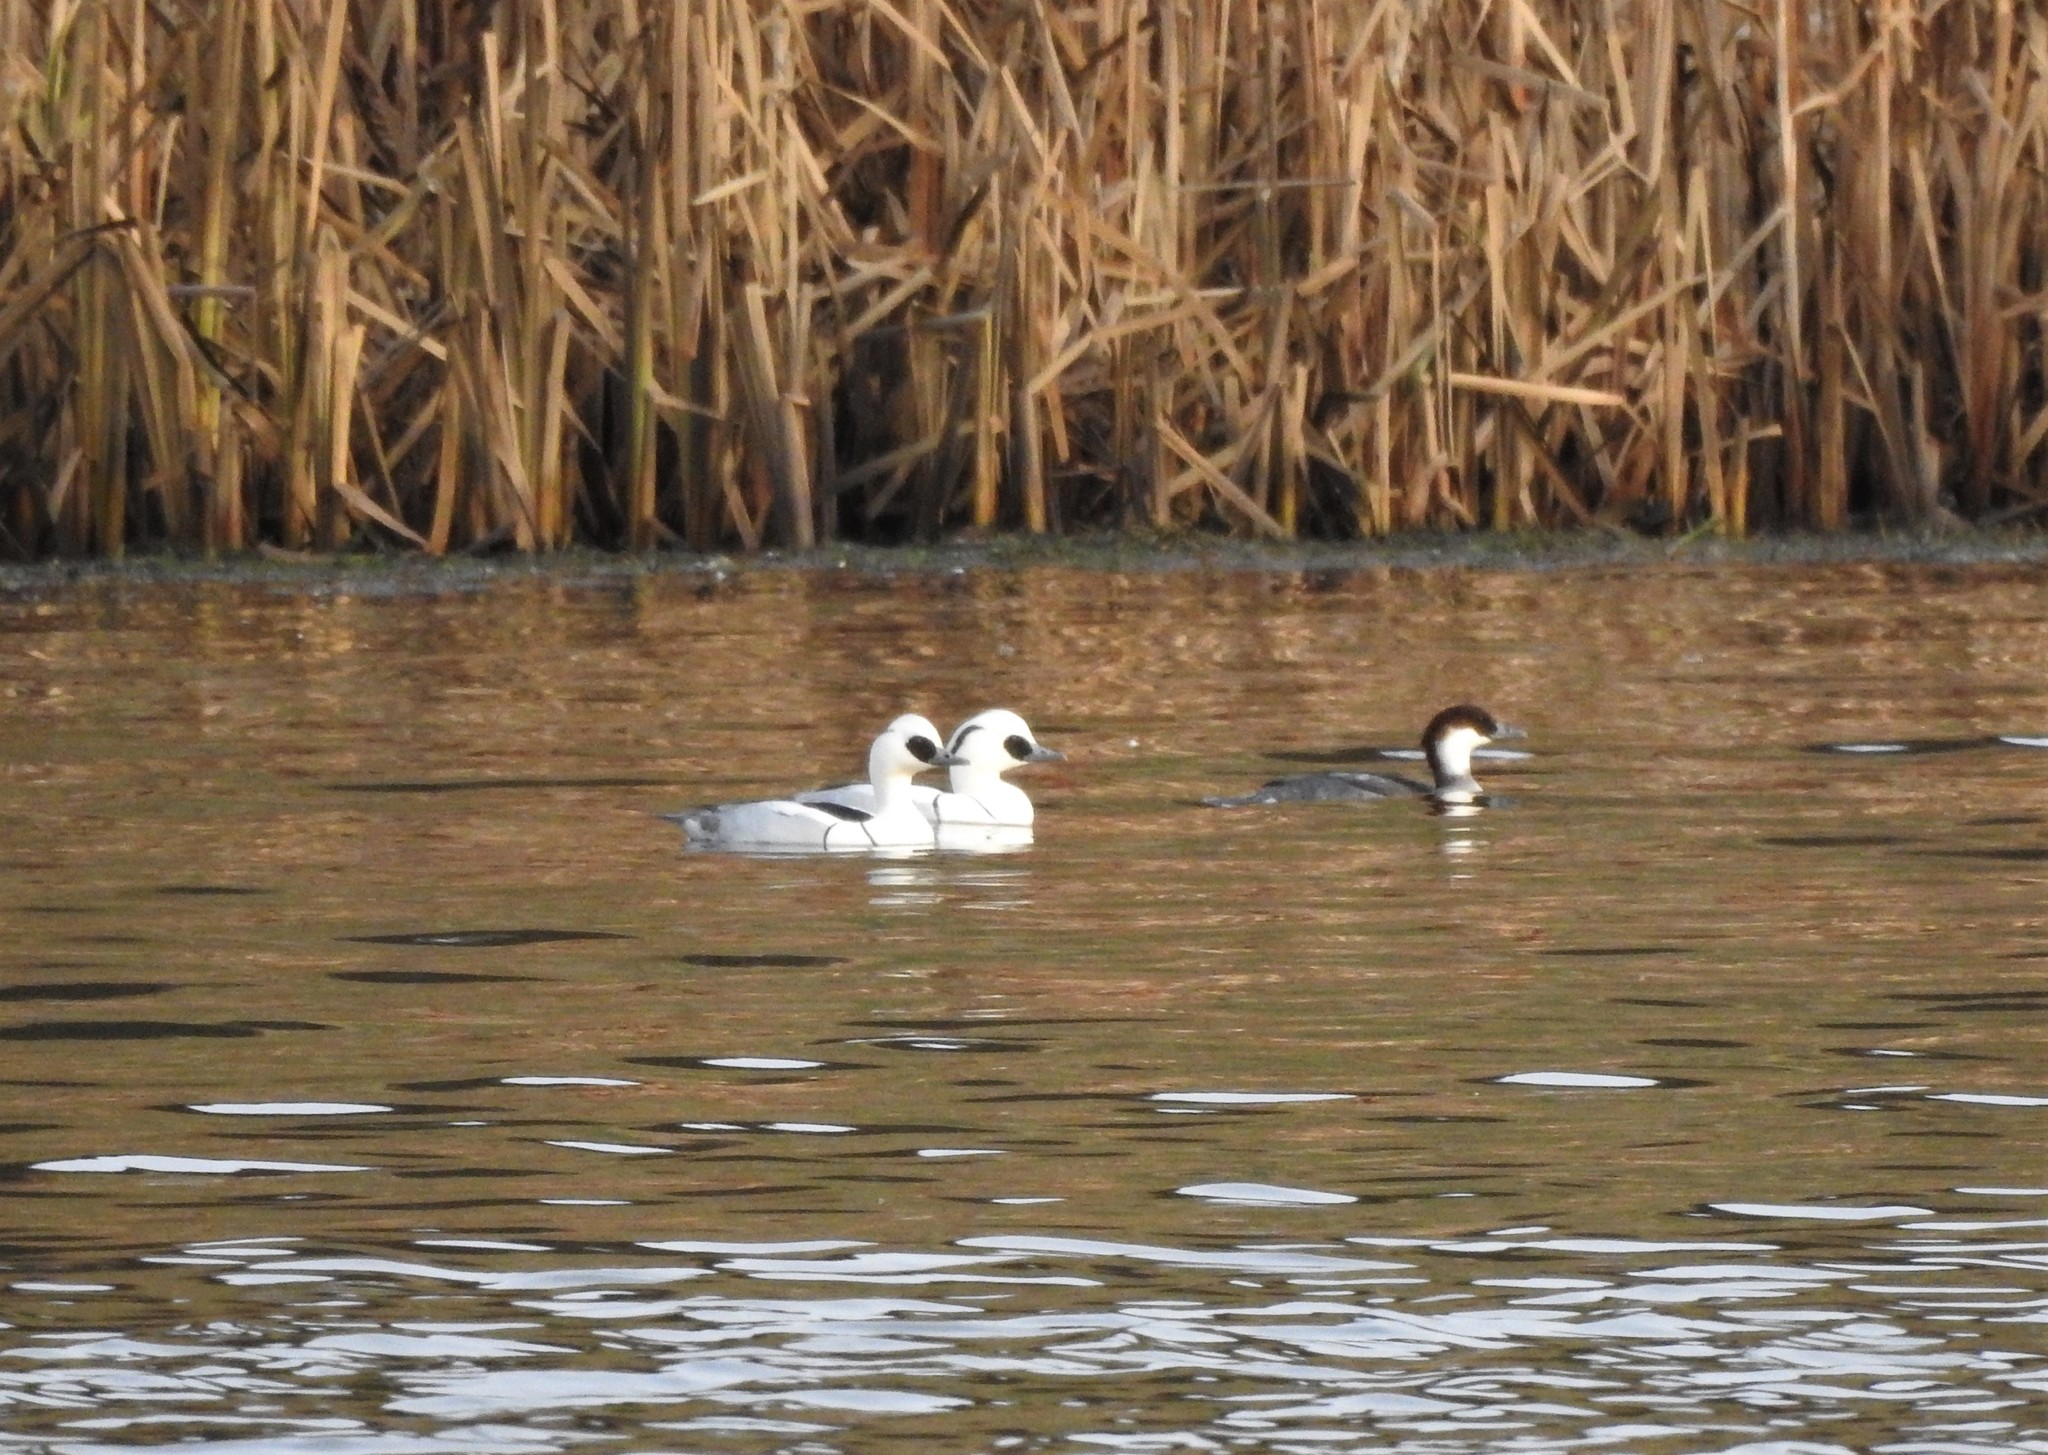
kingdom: Animalia
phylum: Chordata
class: Aves
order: Anseriformes
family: Anatidae
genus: Mergellus
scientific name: Mergellus albellus
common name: Smew
